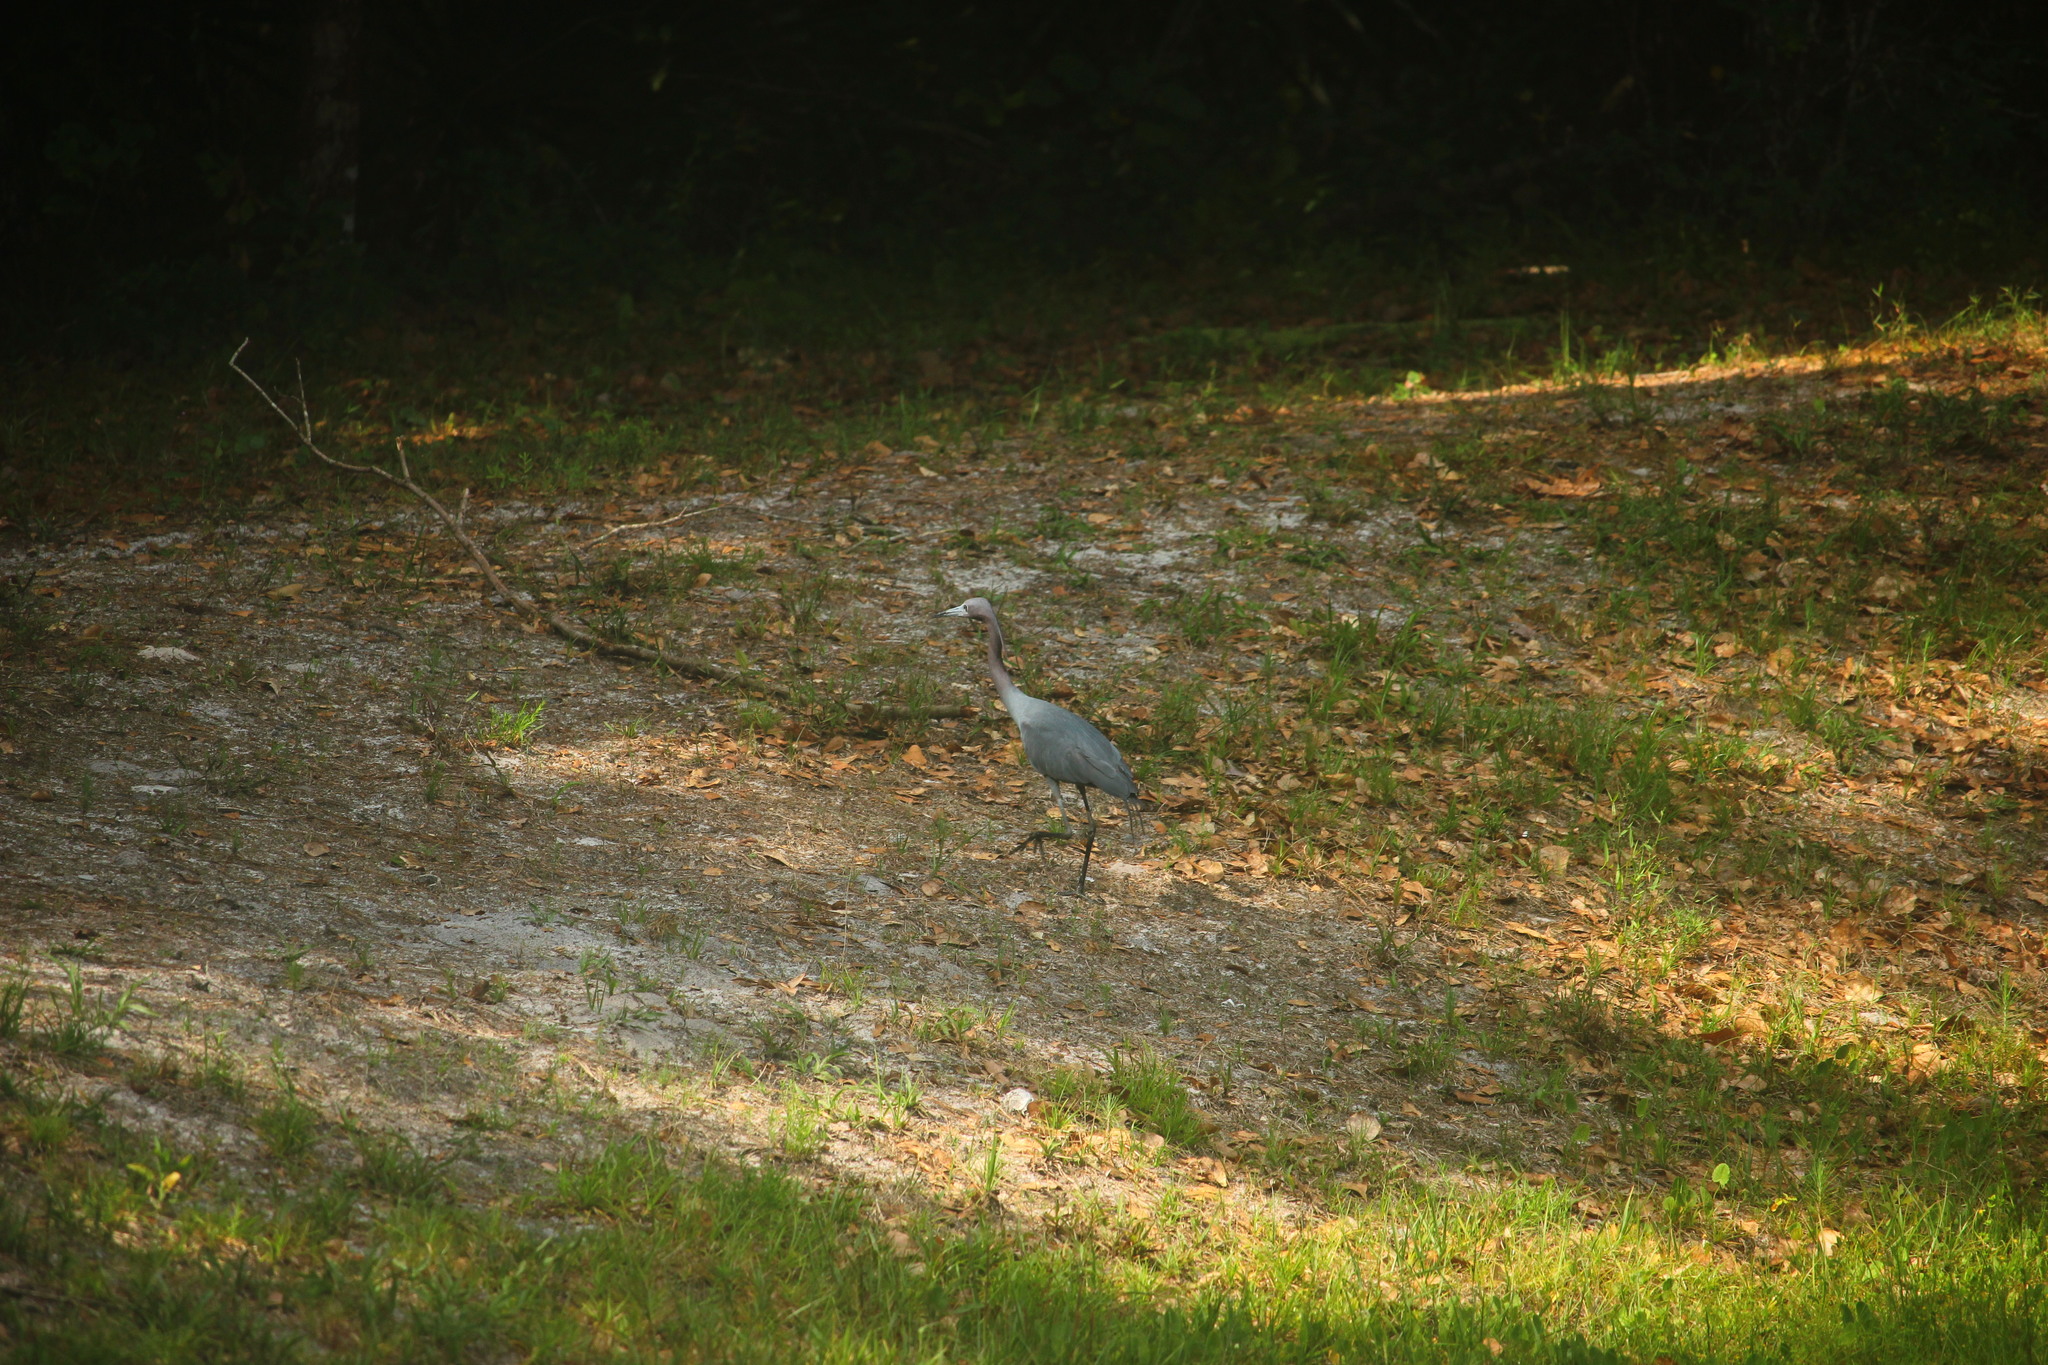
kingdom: Animalia
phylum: Chordata
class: Aves
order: Pelecaniformes
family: Ardeidae
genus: Egretta
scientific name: Egretta caerulea
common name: Little blue heron
